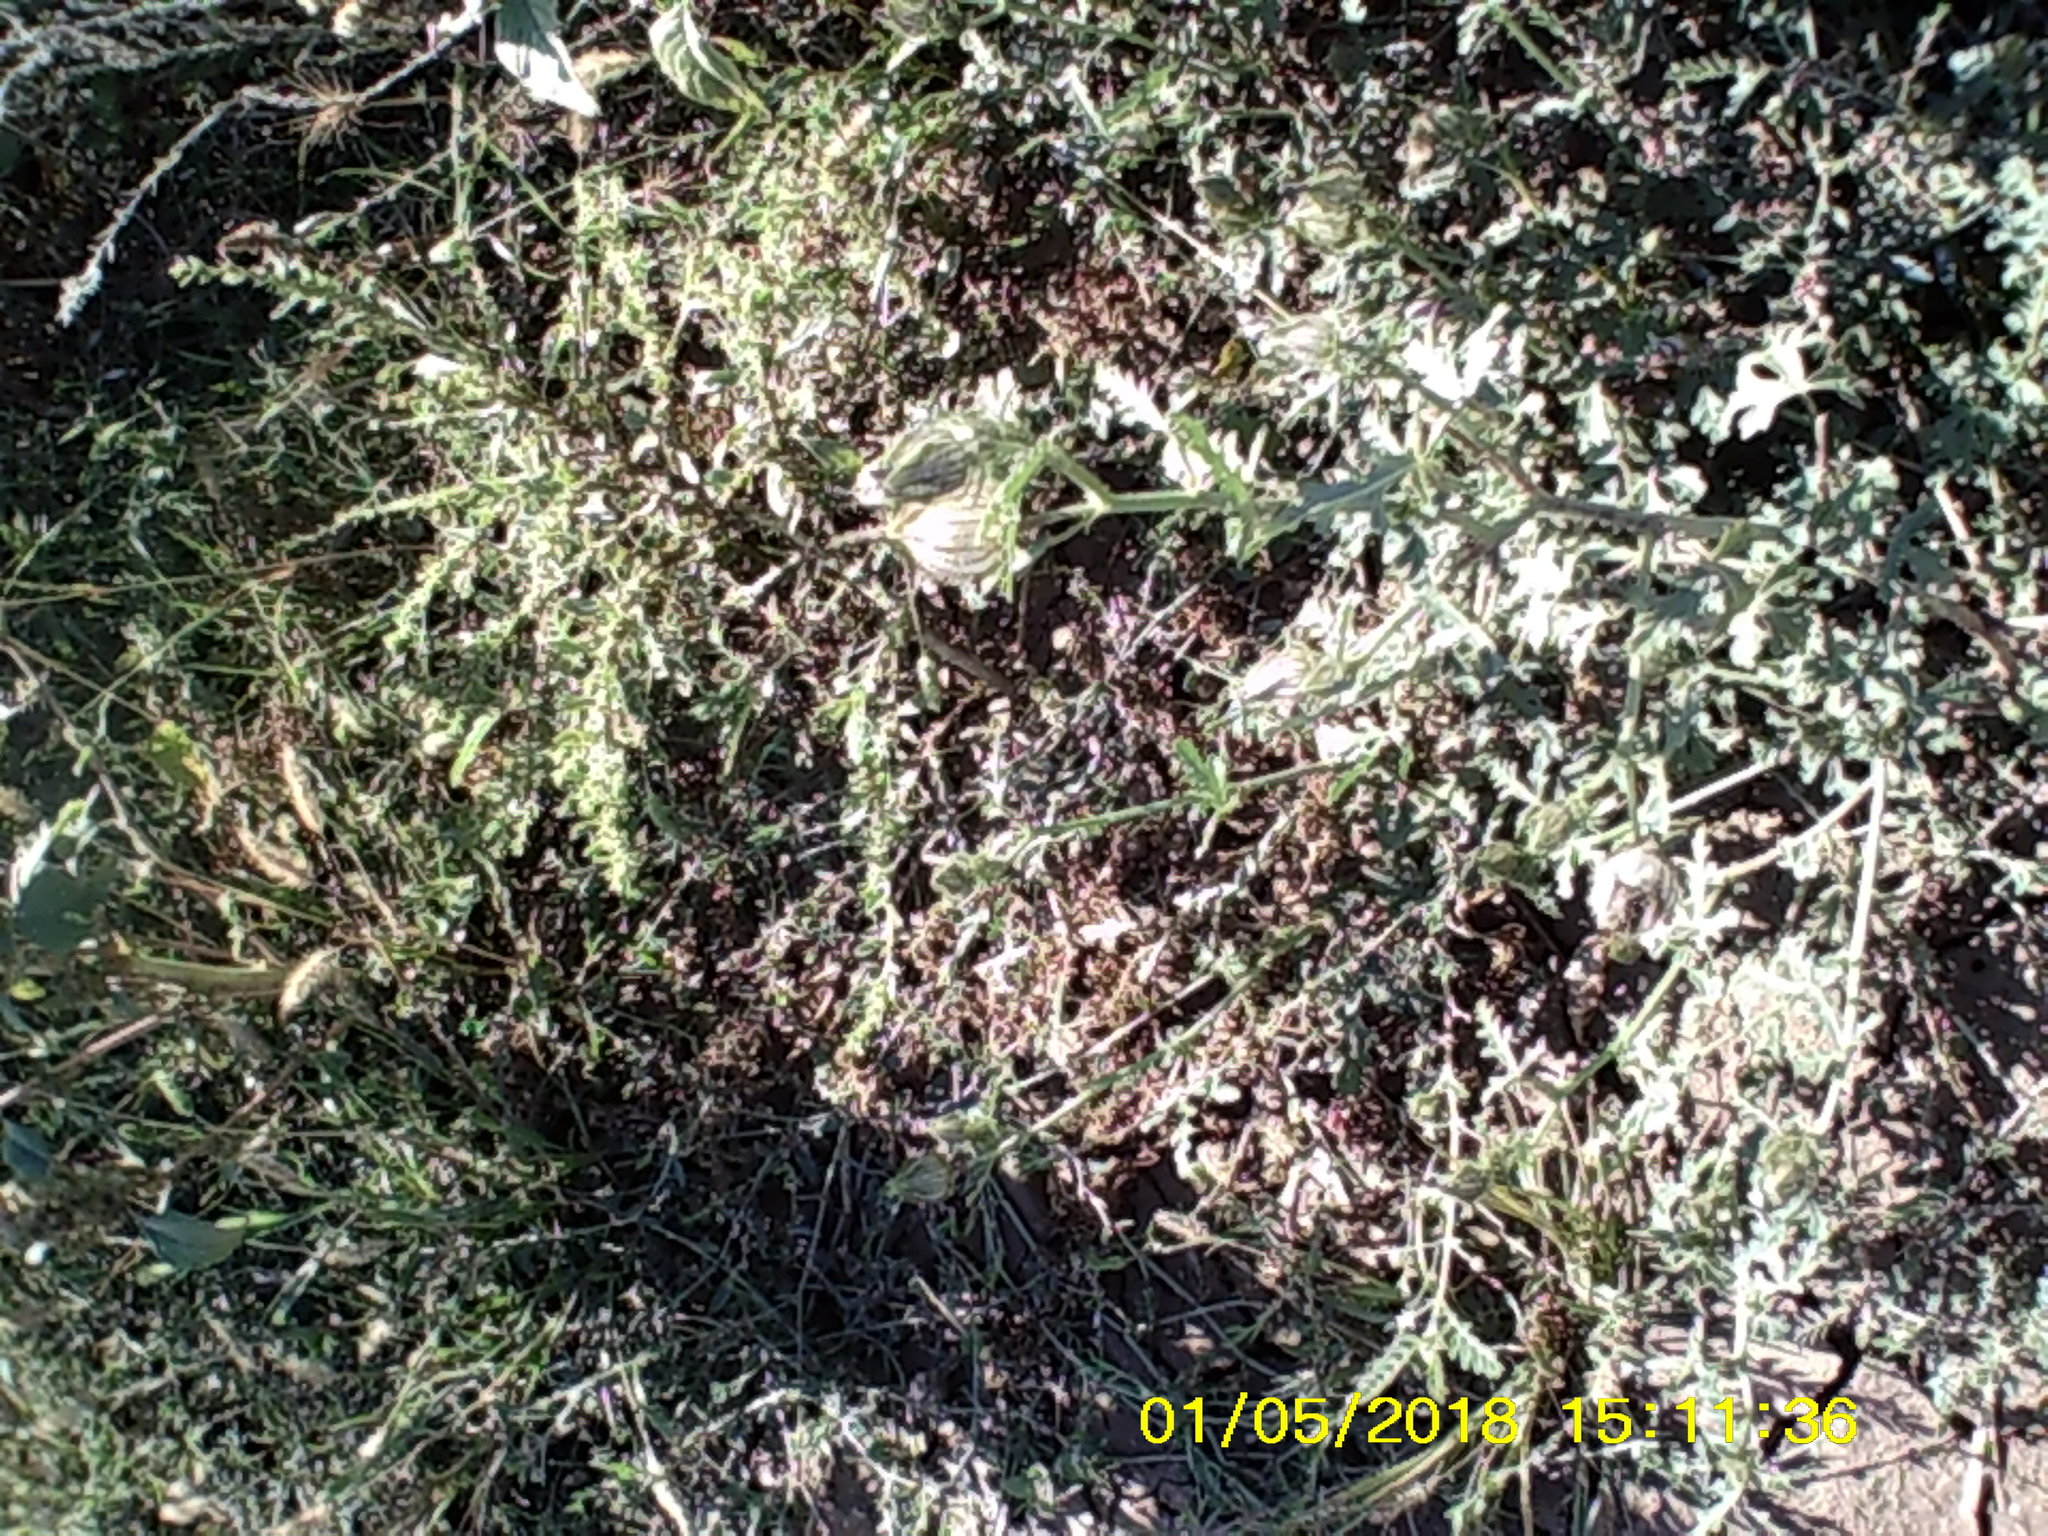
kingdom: Plantae
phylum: Tracheophyta
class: Magnoliopsida
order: Malvales
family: Malvaceae
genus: Hibiscus
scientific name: Hibiscus trionum
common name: Bladder ketmia
